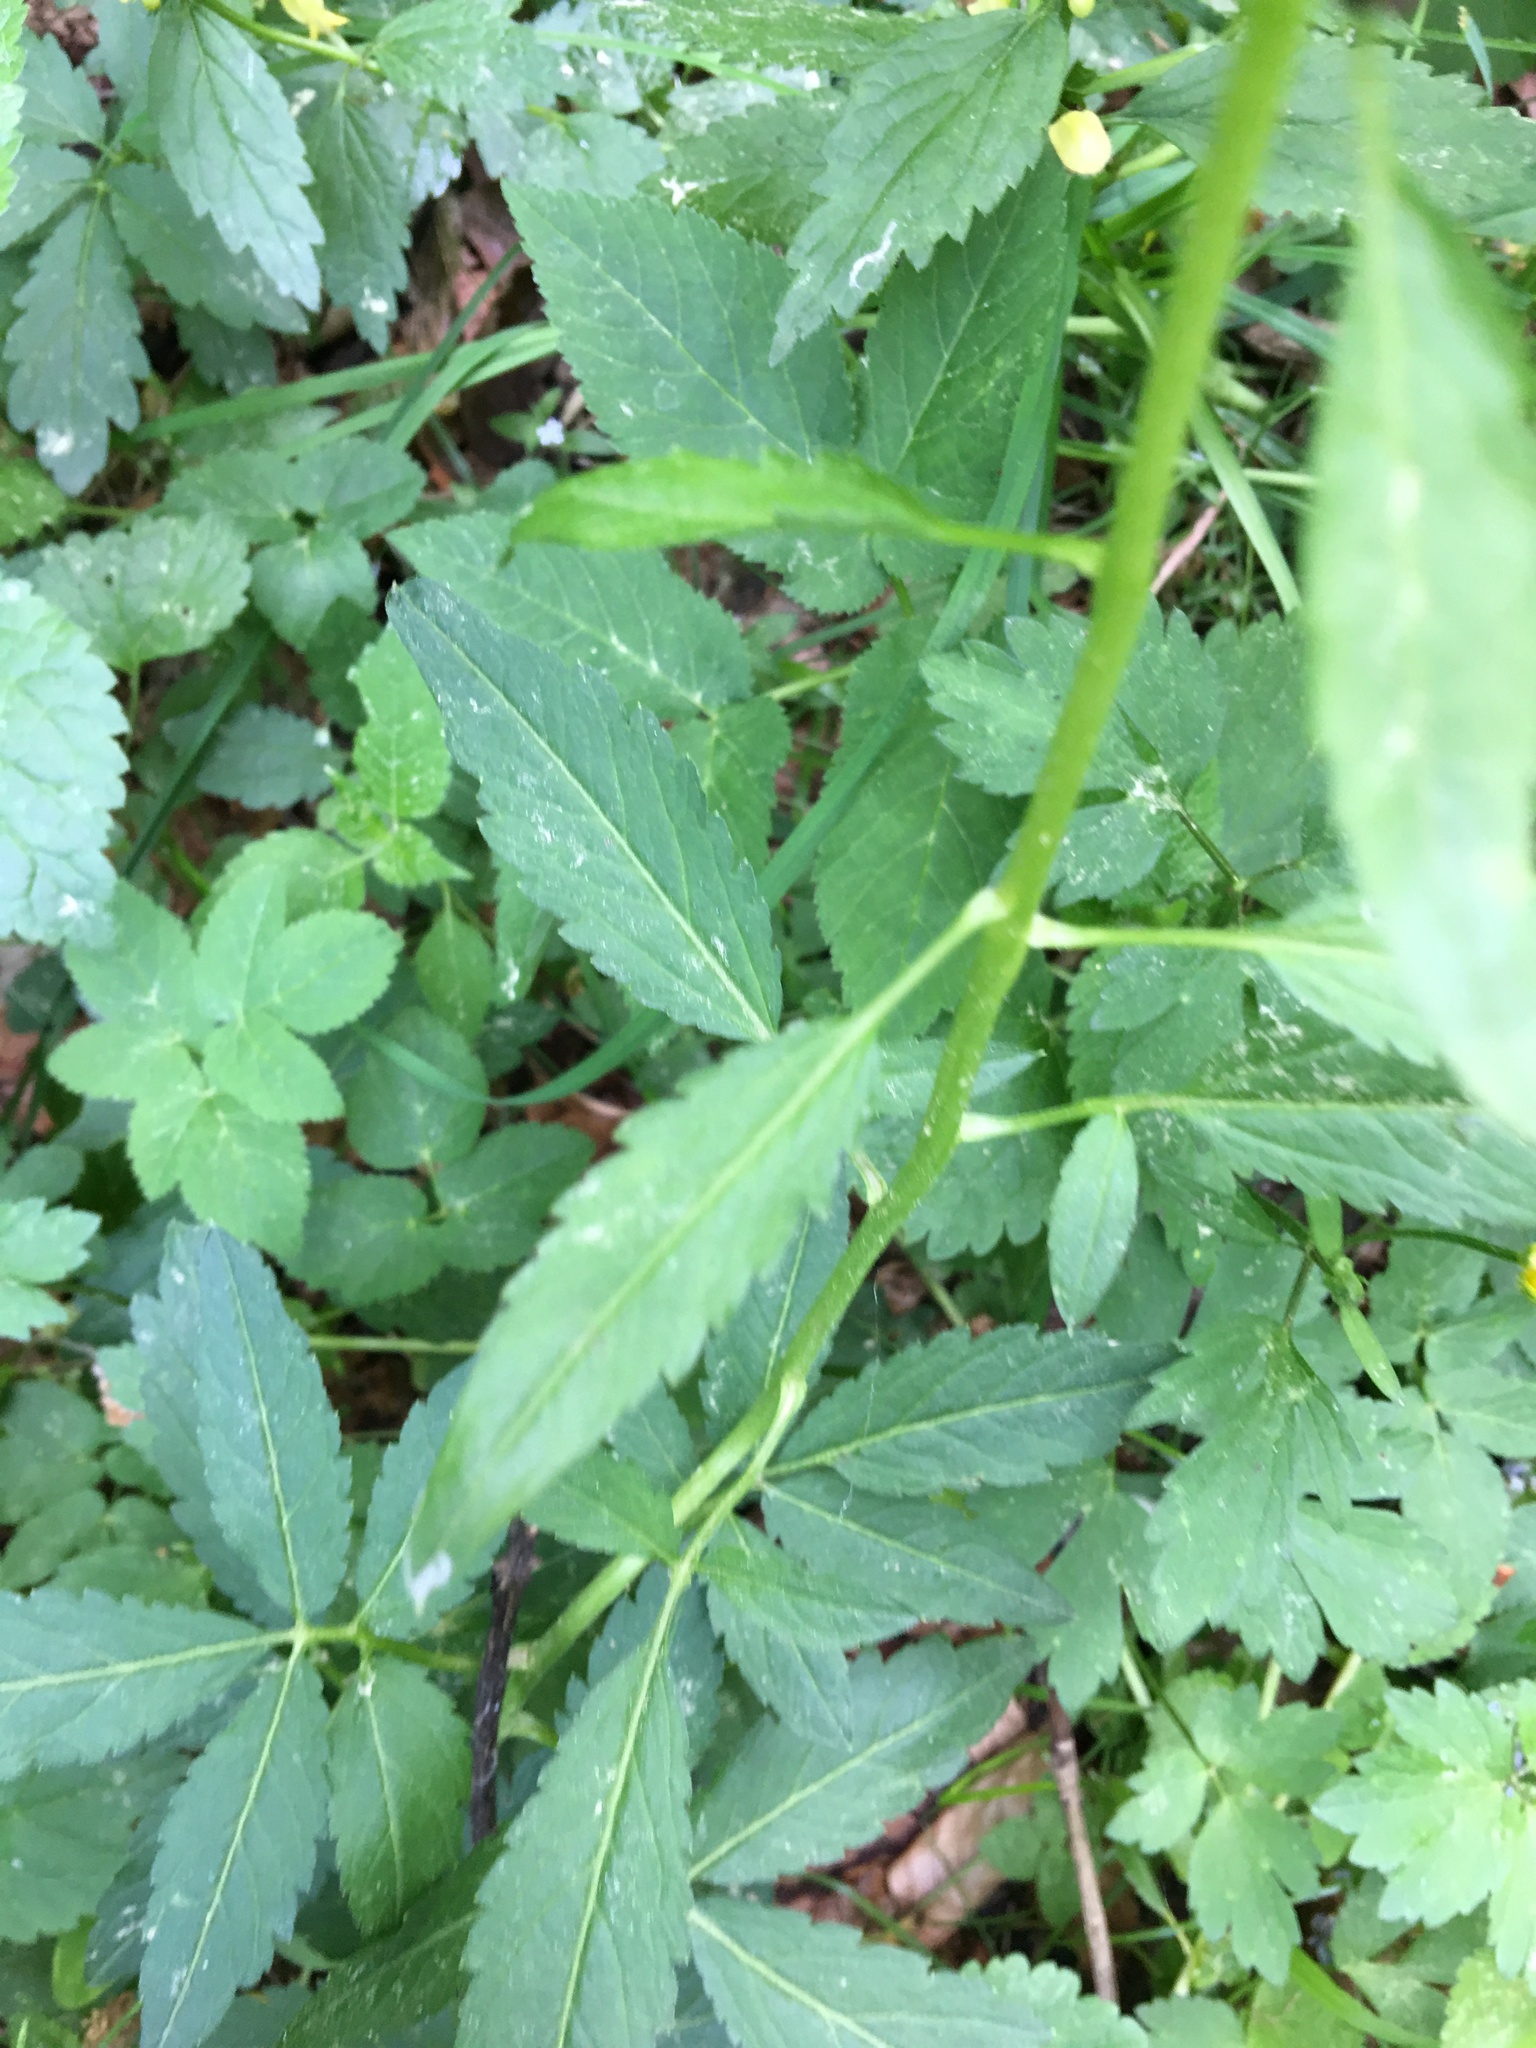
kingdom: Plantae
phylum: Tracheophyta
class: Magnoliopsida
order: Brassicales
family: Brassicaceae
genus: Cardamine
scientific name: Cardamine bulbifera
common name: Coralroot bittercress
